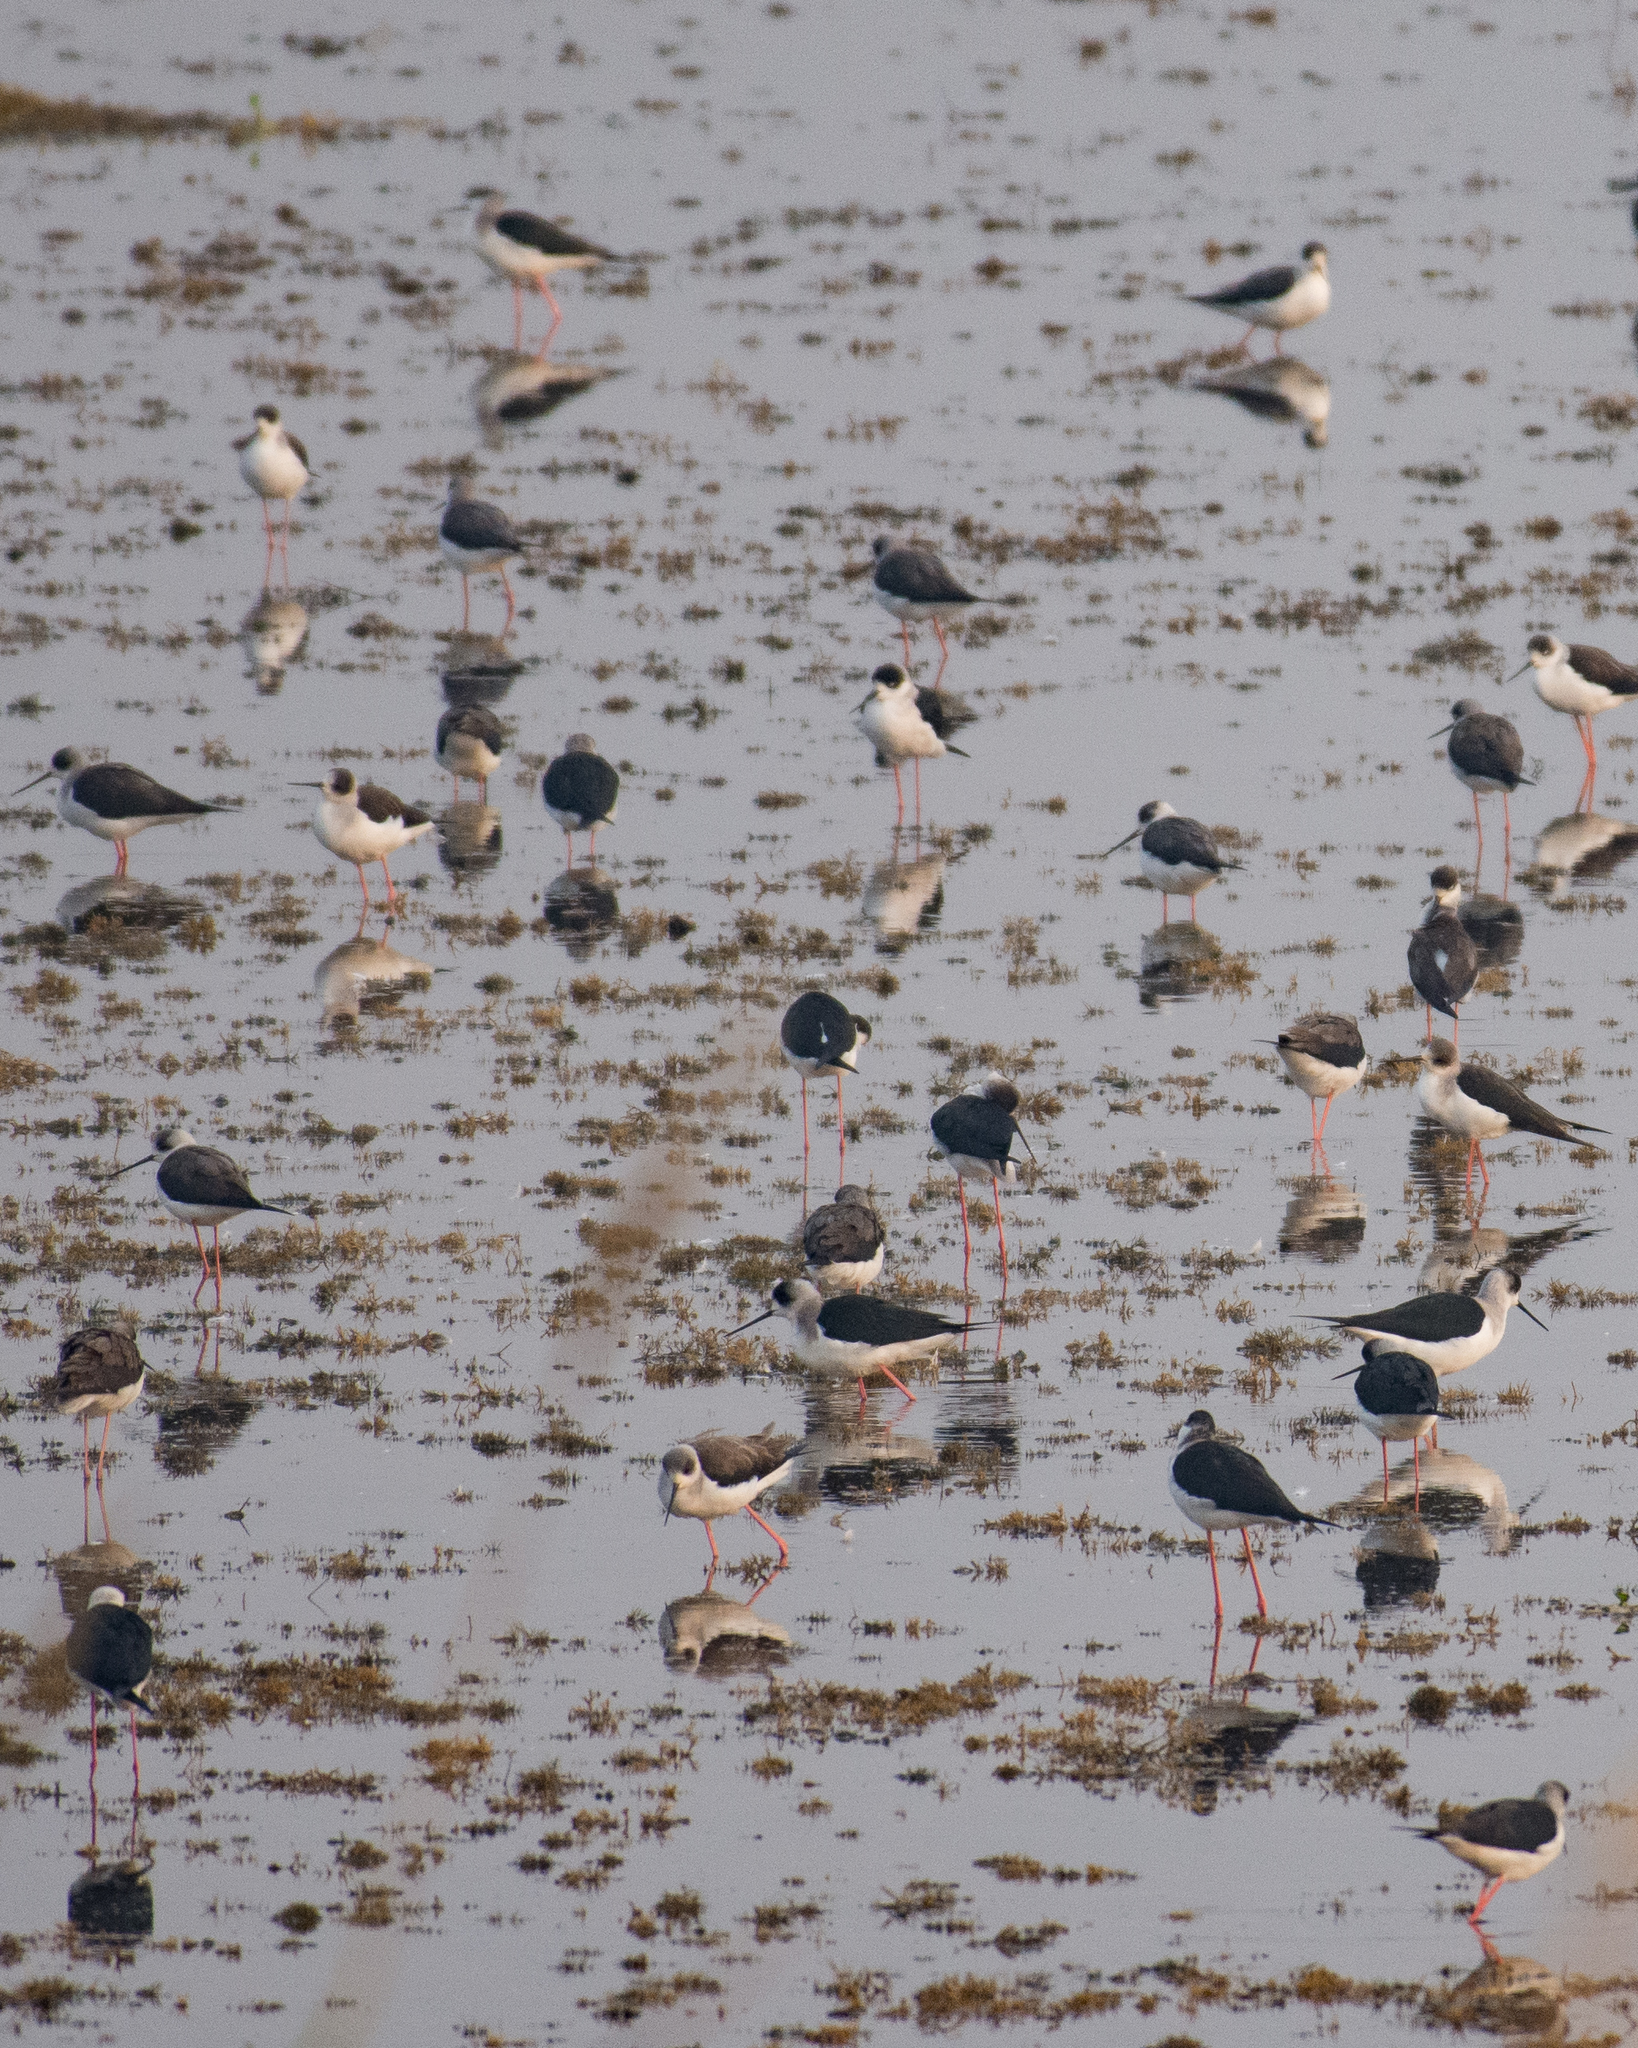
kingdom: Animalia
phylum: Chordata
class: Aves
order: Charadriiformes
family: Recurvirostridae
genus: Himantopus
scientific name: Himantopus himantopus
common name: Black-winged stilt
